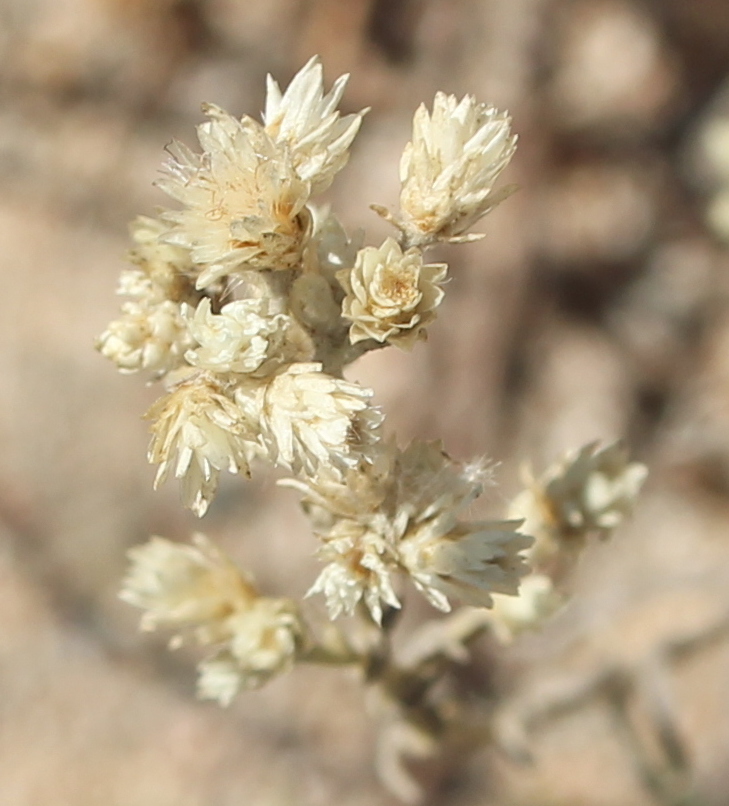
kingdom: Plantae
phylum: Tracheophyta
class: Magnoliopsida
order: Asterales
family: Asteraceae
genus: Pseudognaphalium
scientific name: Pseudognaphalium beneolens
